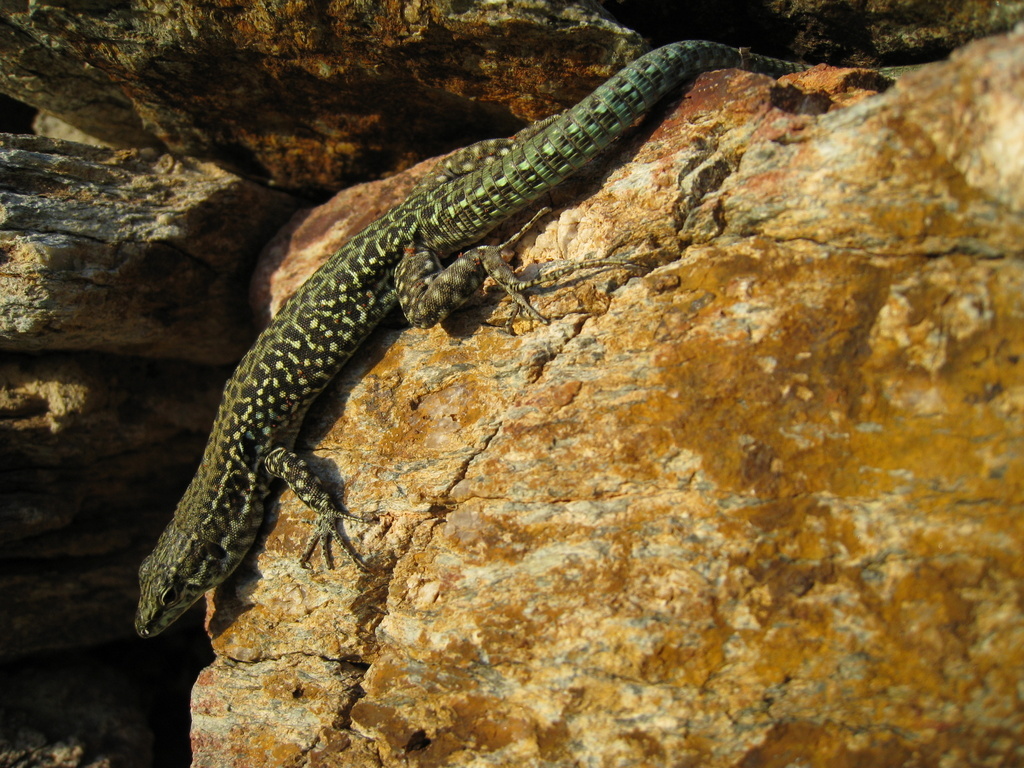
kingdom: Animalia
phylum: Chordata
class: Squamata
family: Lacertidae
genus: Podarcis
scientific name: Podarcis tiliguerta
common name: Tyrrhenian wall lizard
